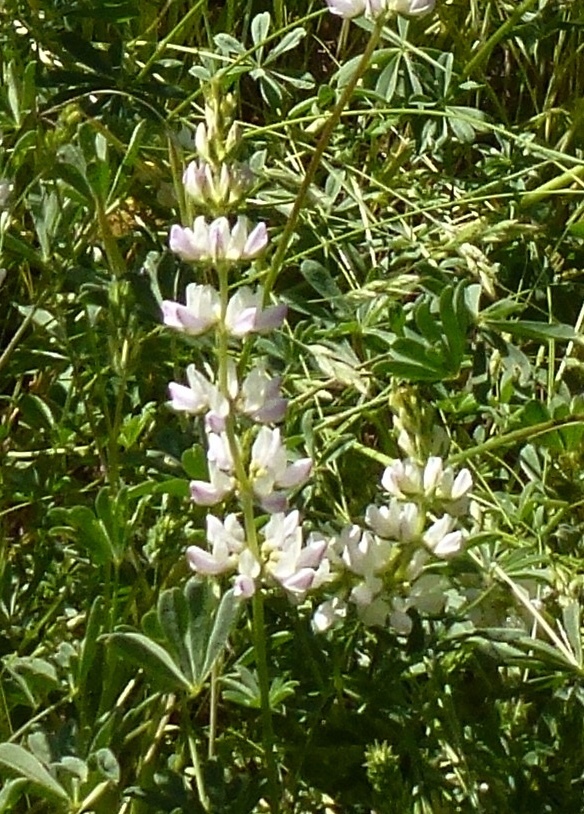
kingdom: Plantae
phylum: Tracheophyta
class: Magnoliopsida
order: Fabales
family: Fabaceae
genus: Lupinus
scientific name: Lupinus microcarpus
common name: Chick lupine
